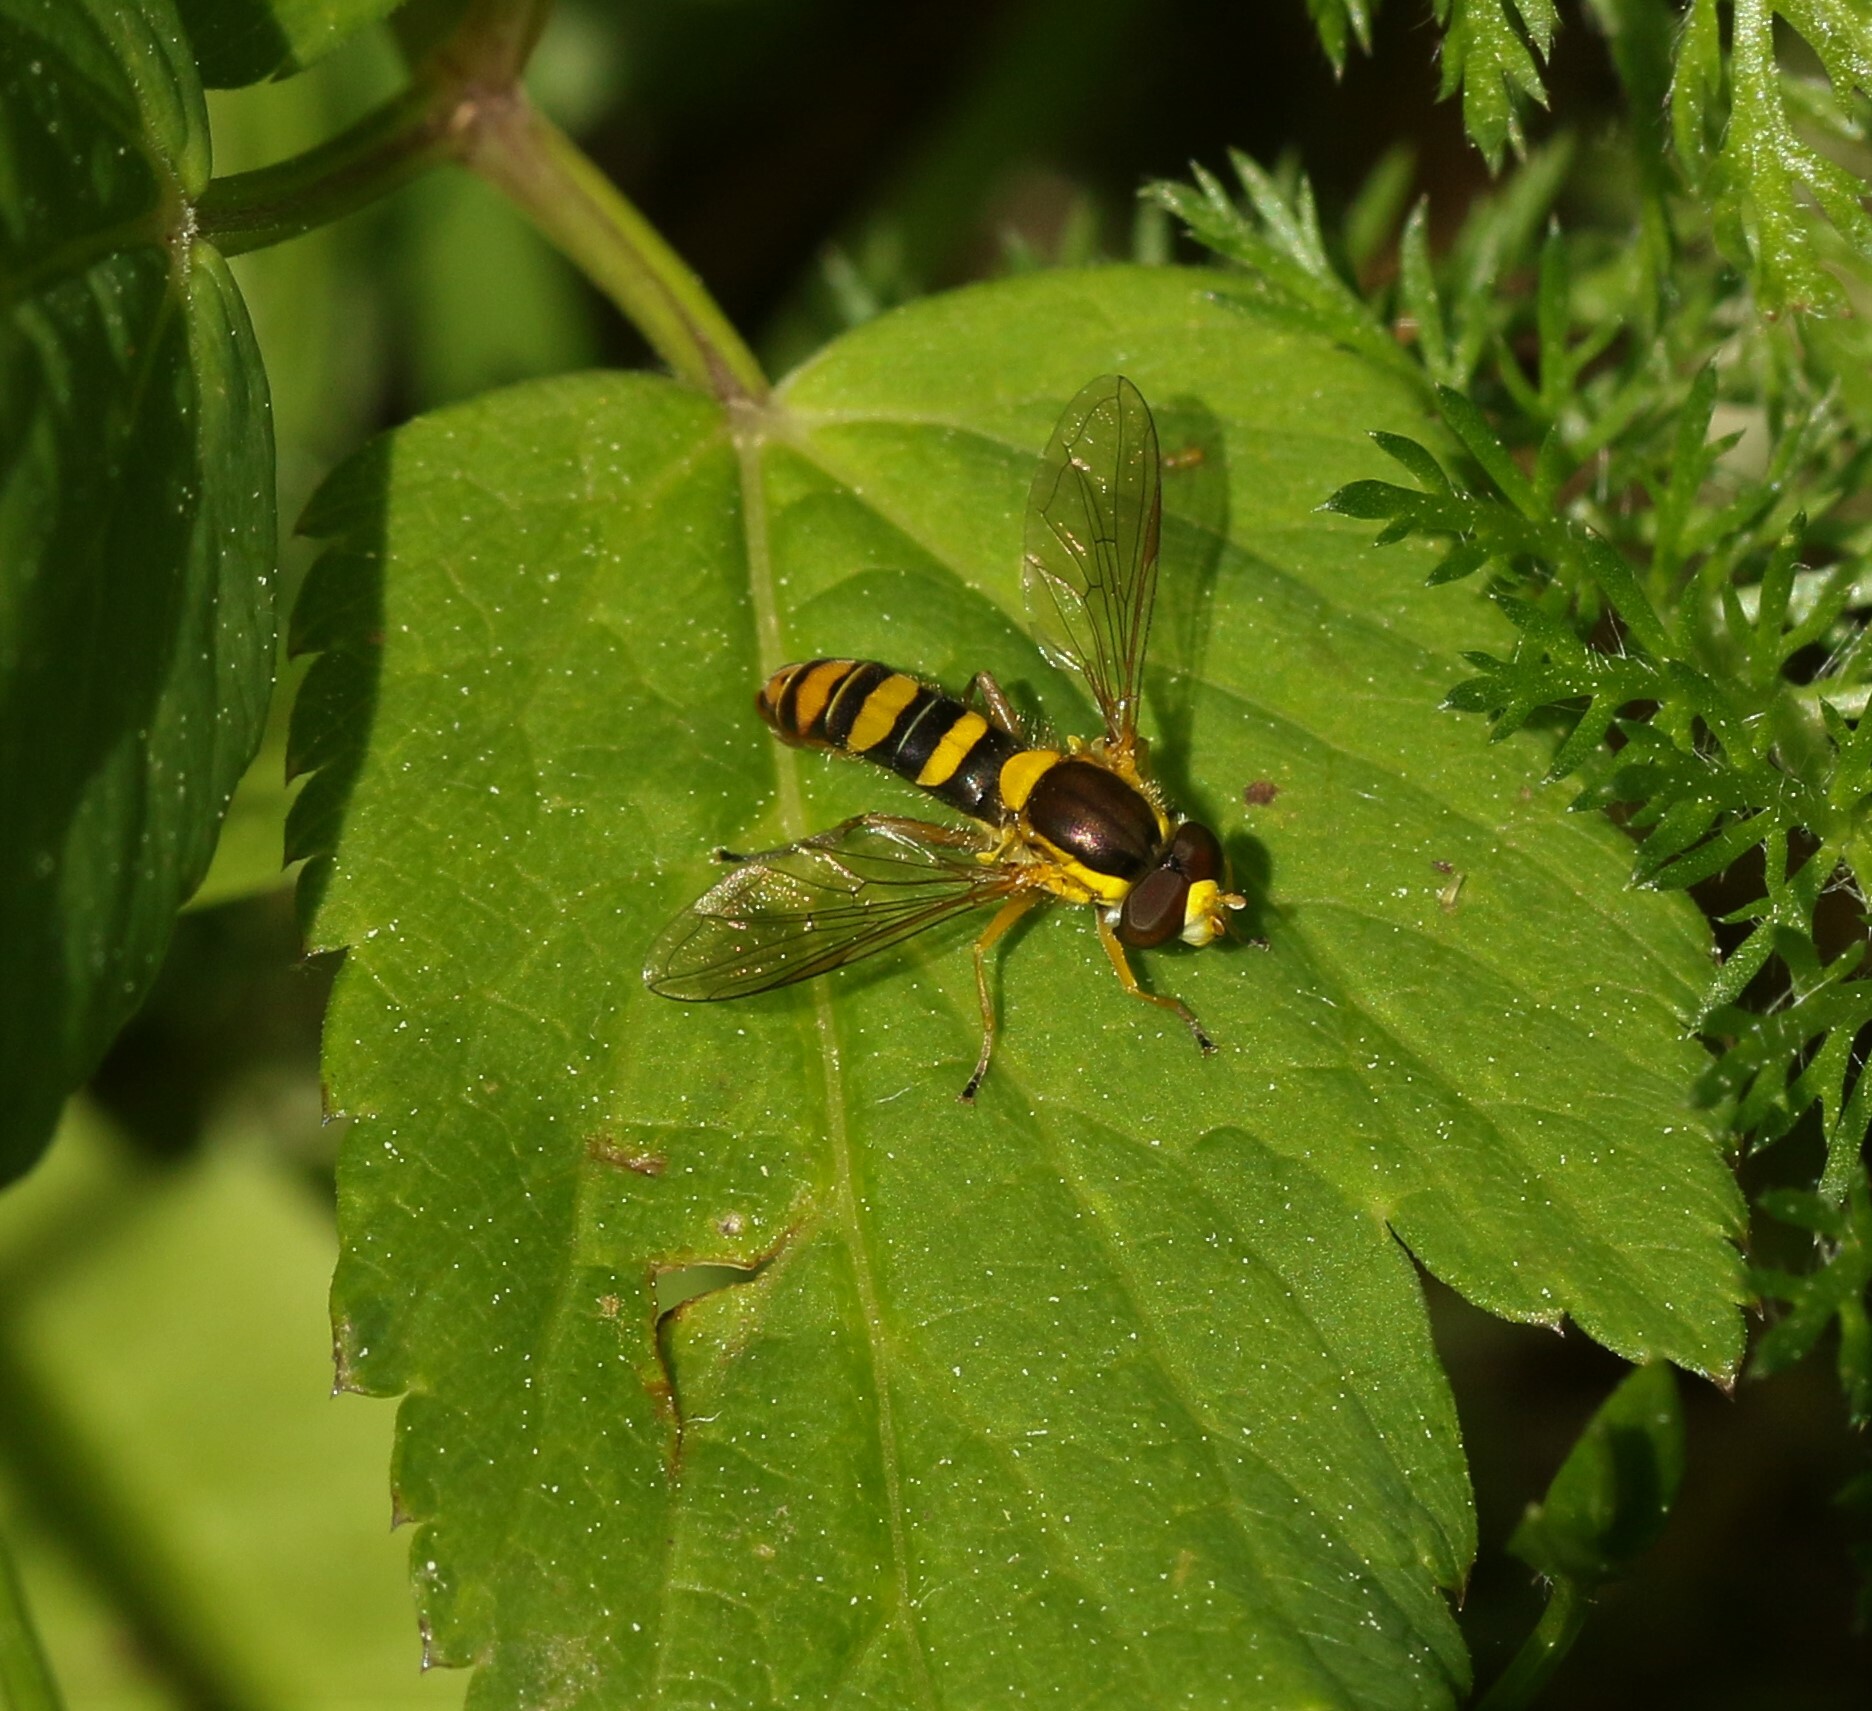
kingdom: Animalia
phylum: Arthropoda
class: Insecta
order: Diptera
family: Syrphidae
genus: Sphaerophoria
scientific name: Sphaerophoria philantha
